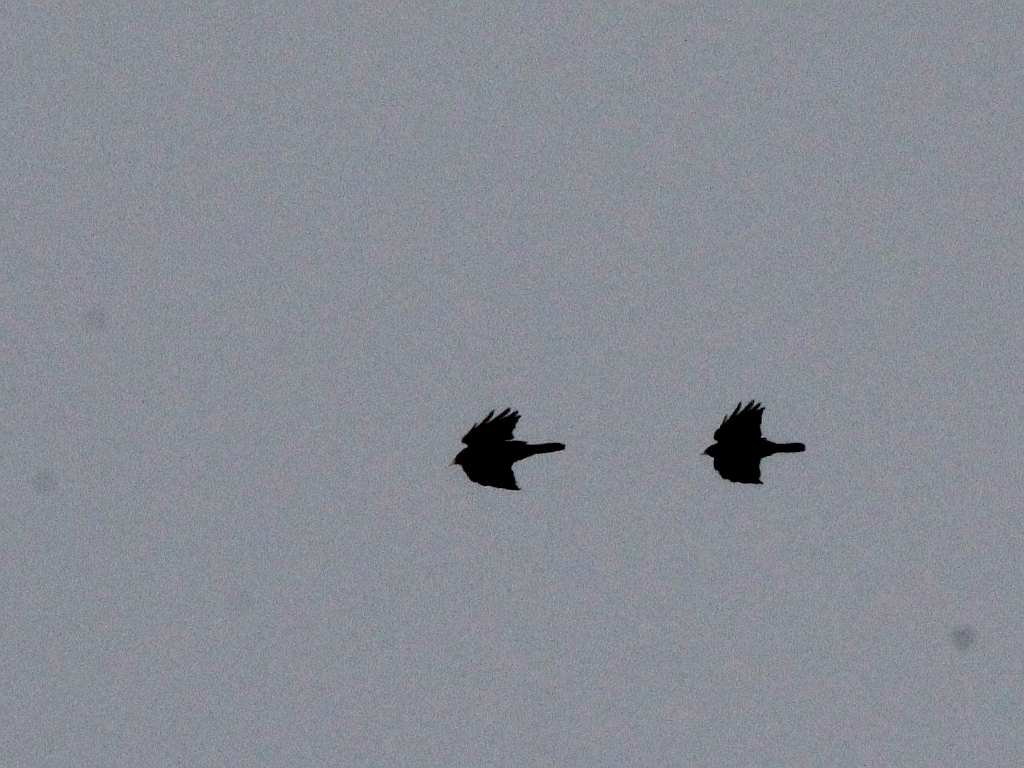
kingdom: Animalia
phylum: Chordata
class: Aves
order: Passeriformes
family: Corvidae
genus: Pyrrhocorax
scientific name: Pyrrhocorax graculus
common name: Alpine chough
